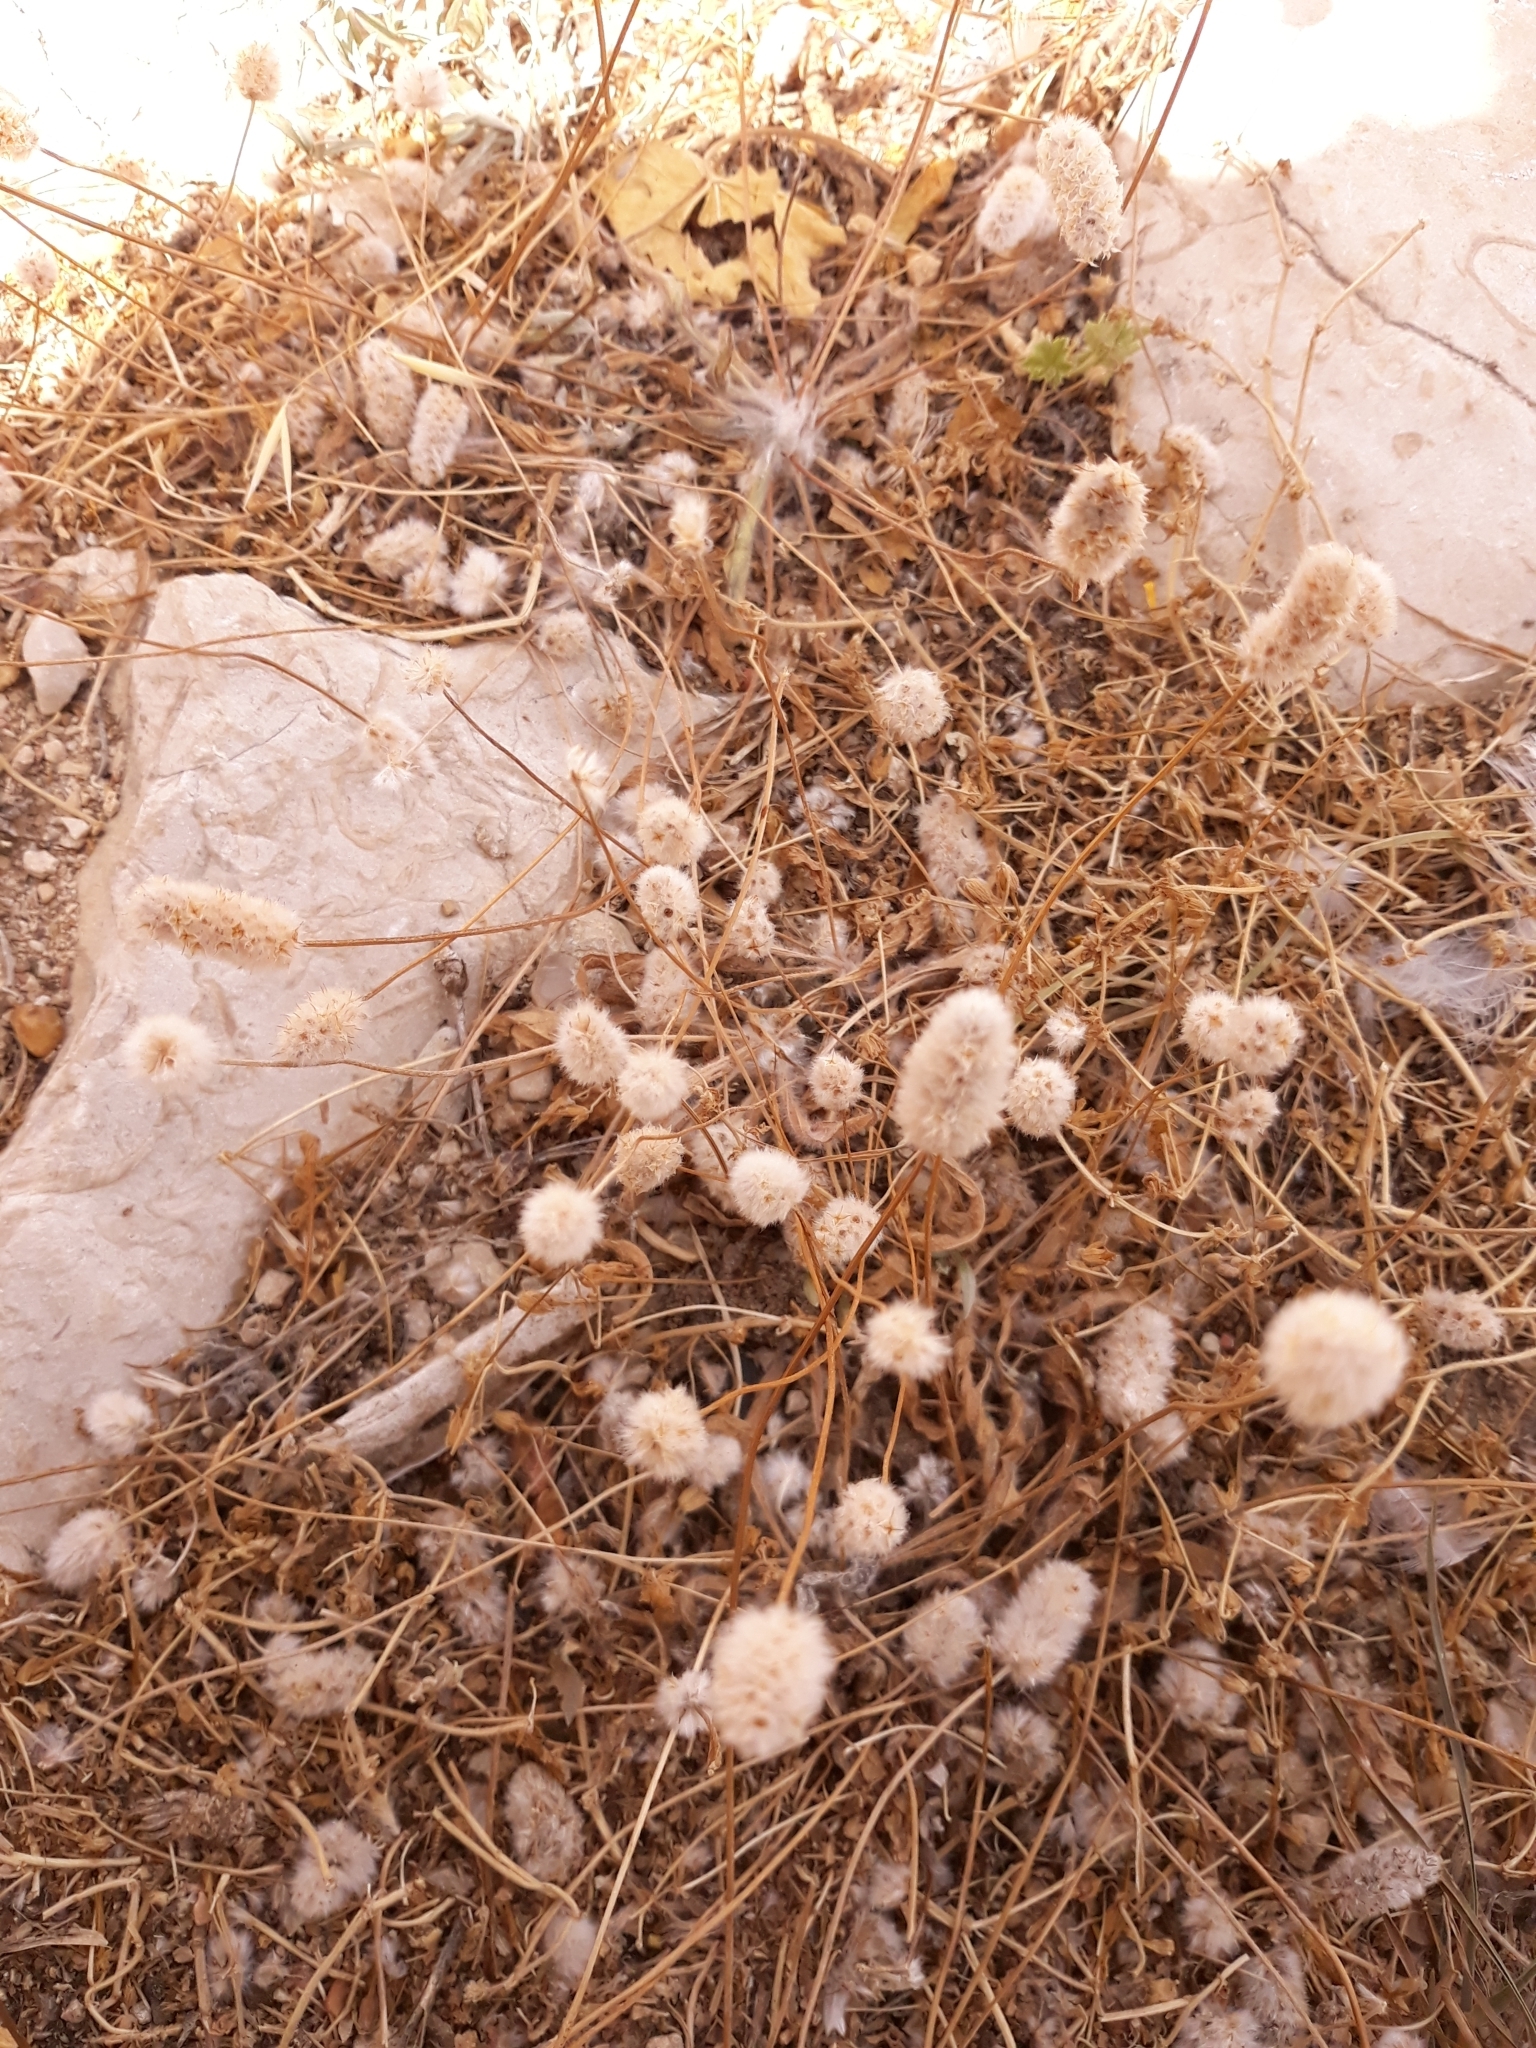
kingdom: Plantae
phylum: Tracheophyta
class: Liliopsida
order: Poales
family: Poaceae
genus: Lagurus
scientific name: Lagurus ovatus
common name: Hare's-tail
